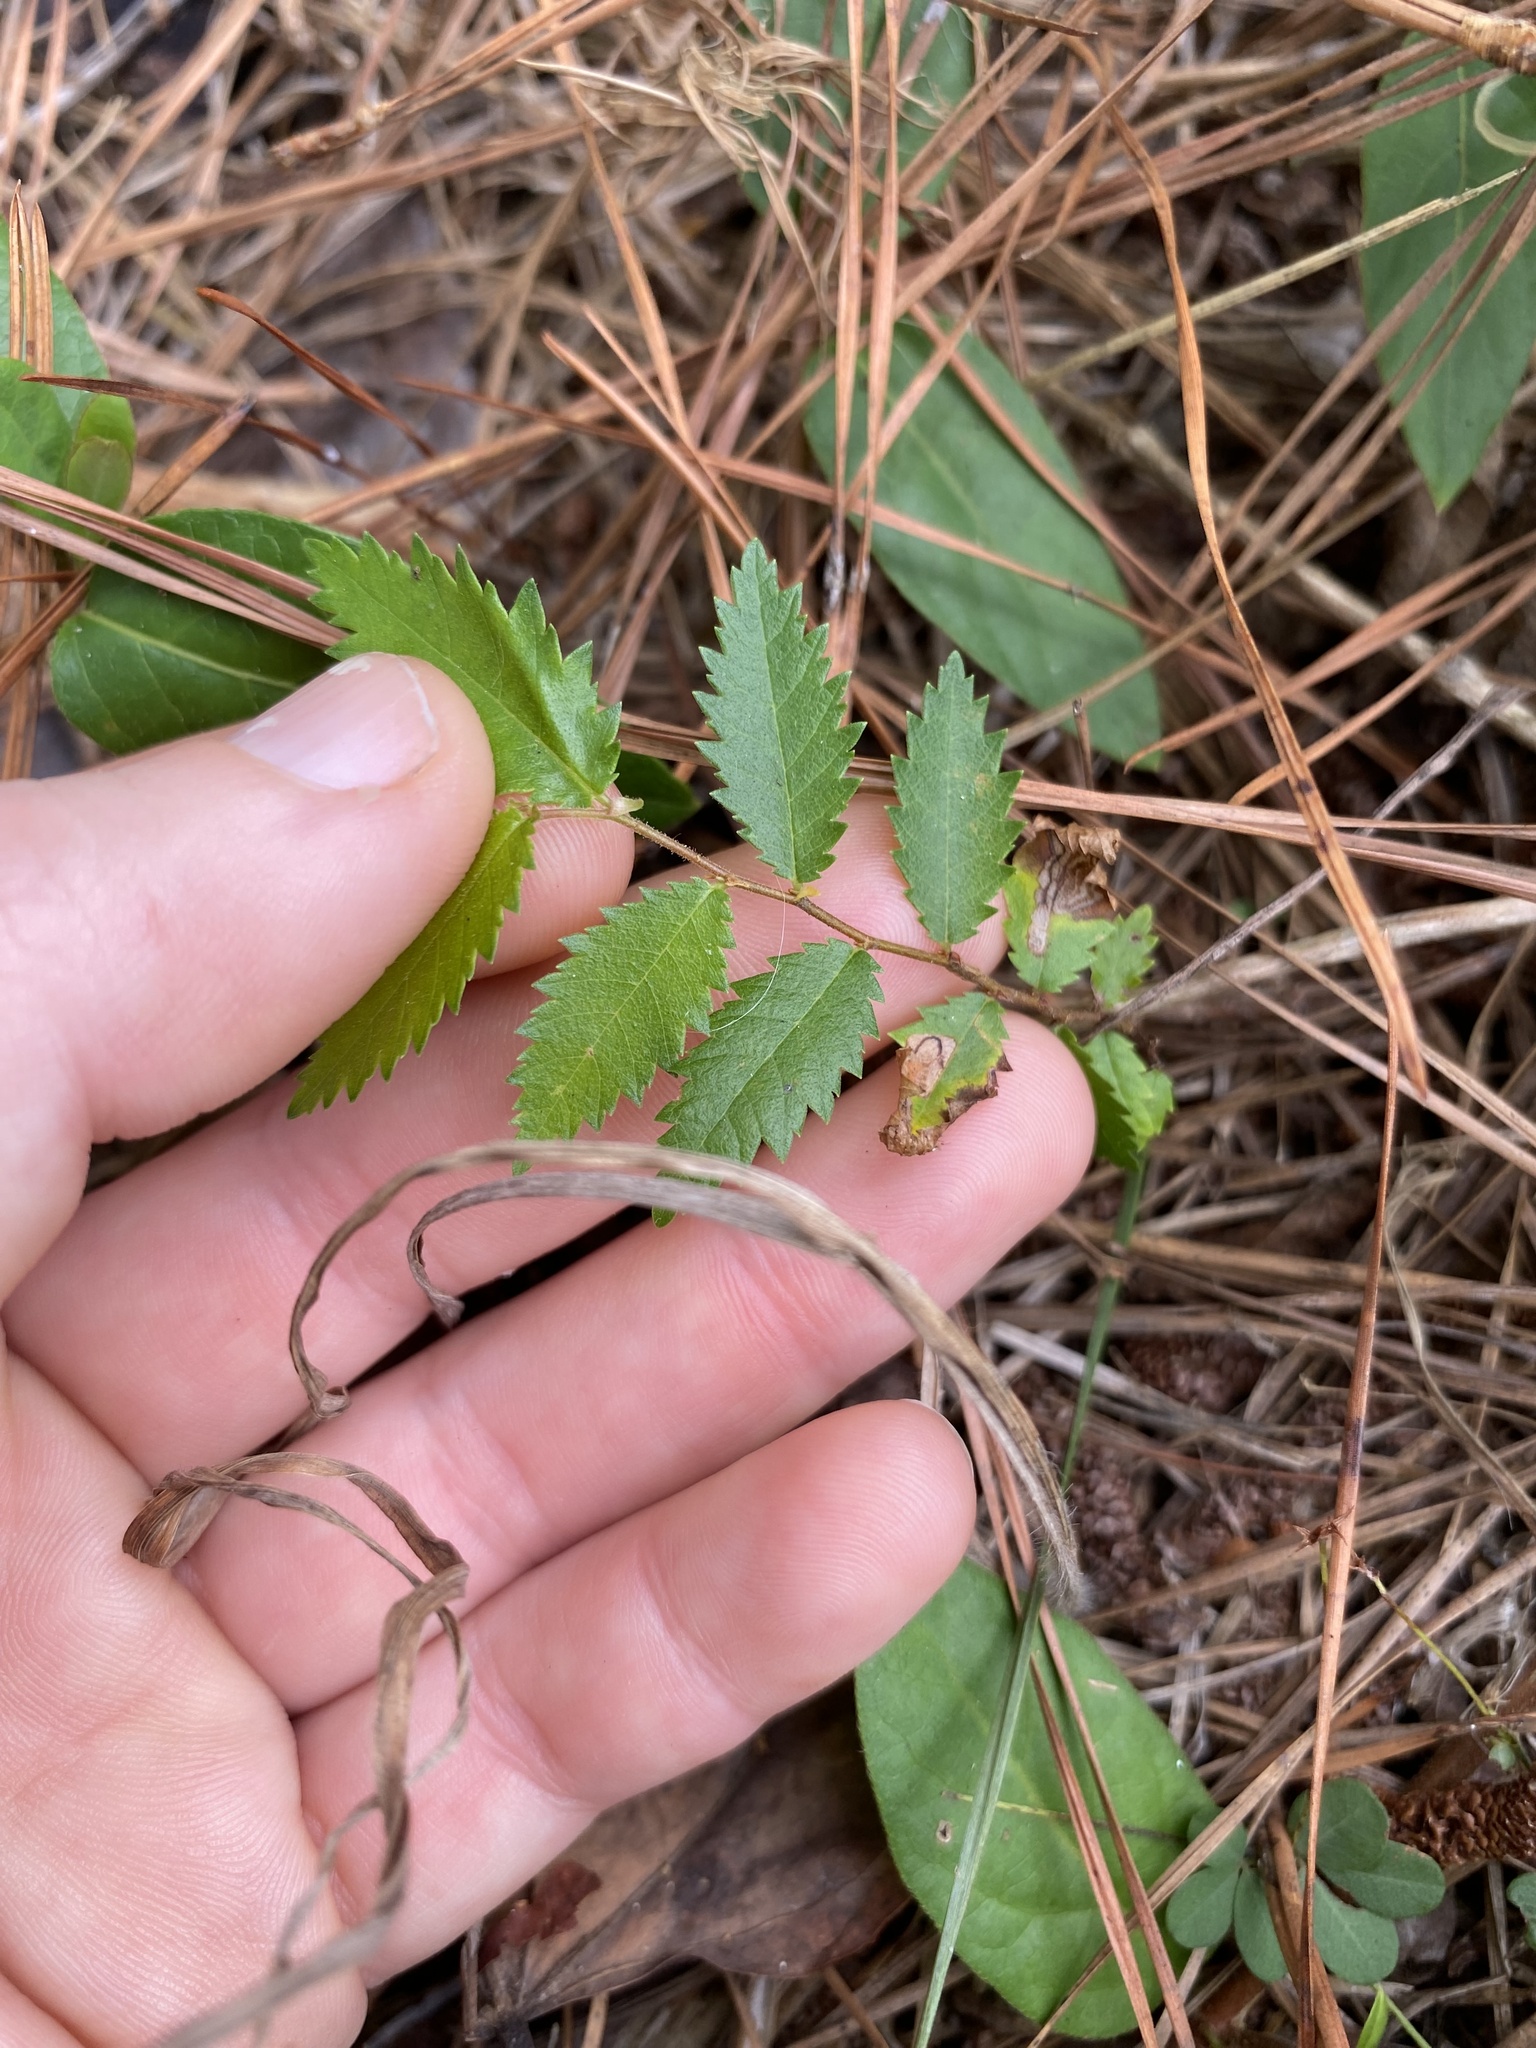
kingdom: Plantae
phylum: Tracheophyta
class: Magnoliopsida
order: Rosales
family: Ulmaceae
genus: Ulmus
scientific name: Ulmus alata
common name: Winged elm
